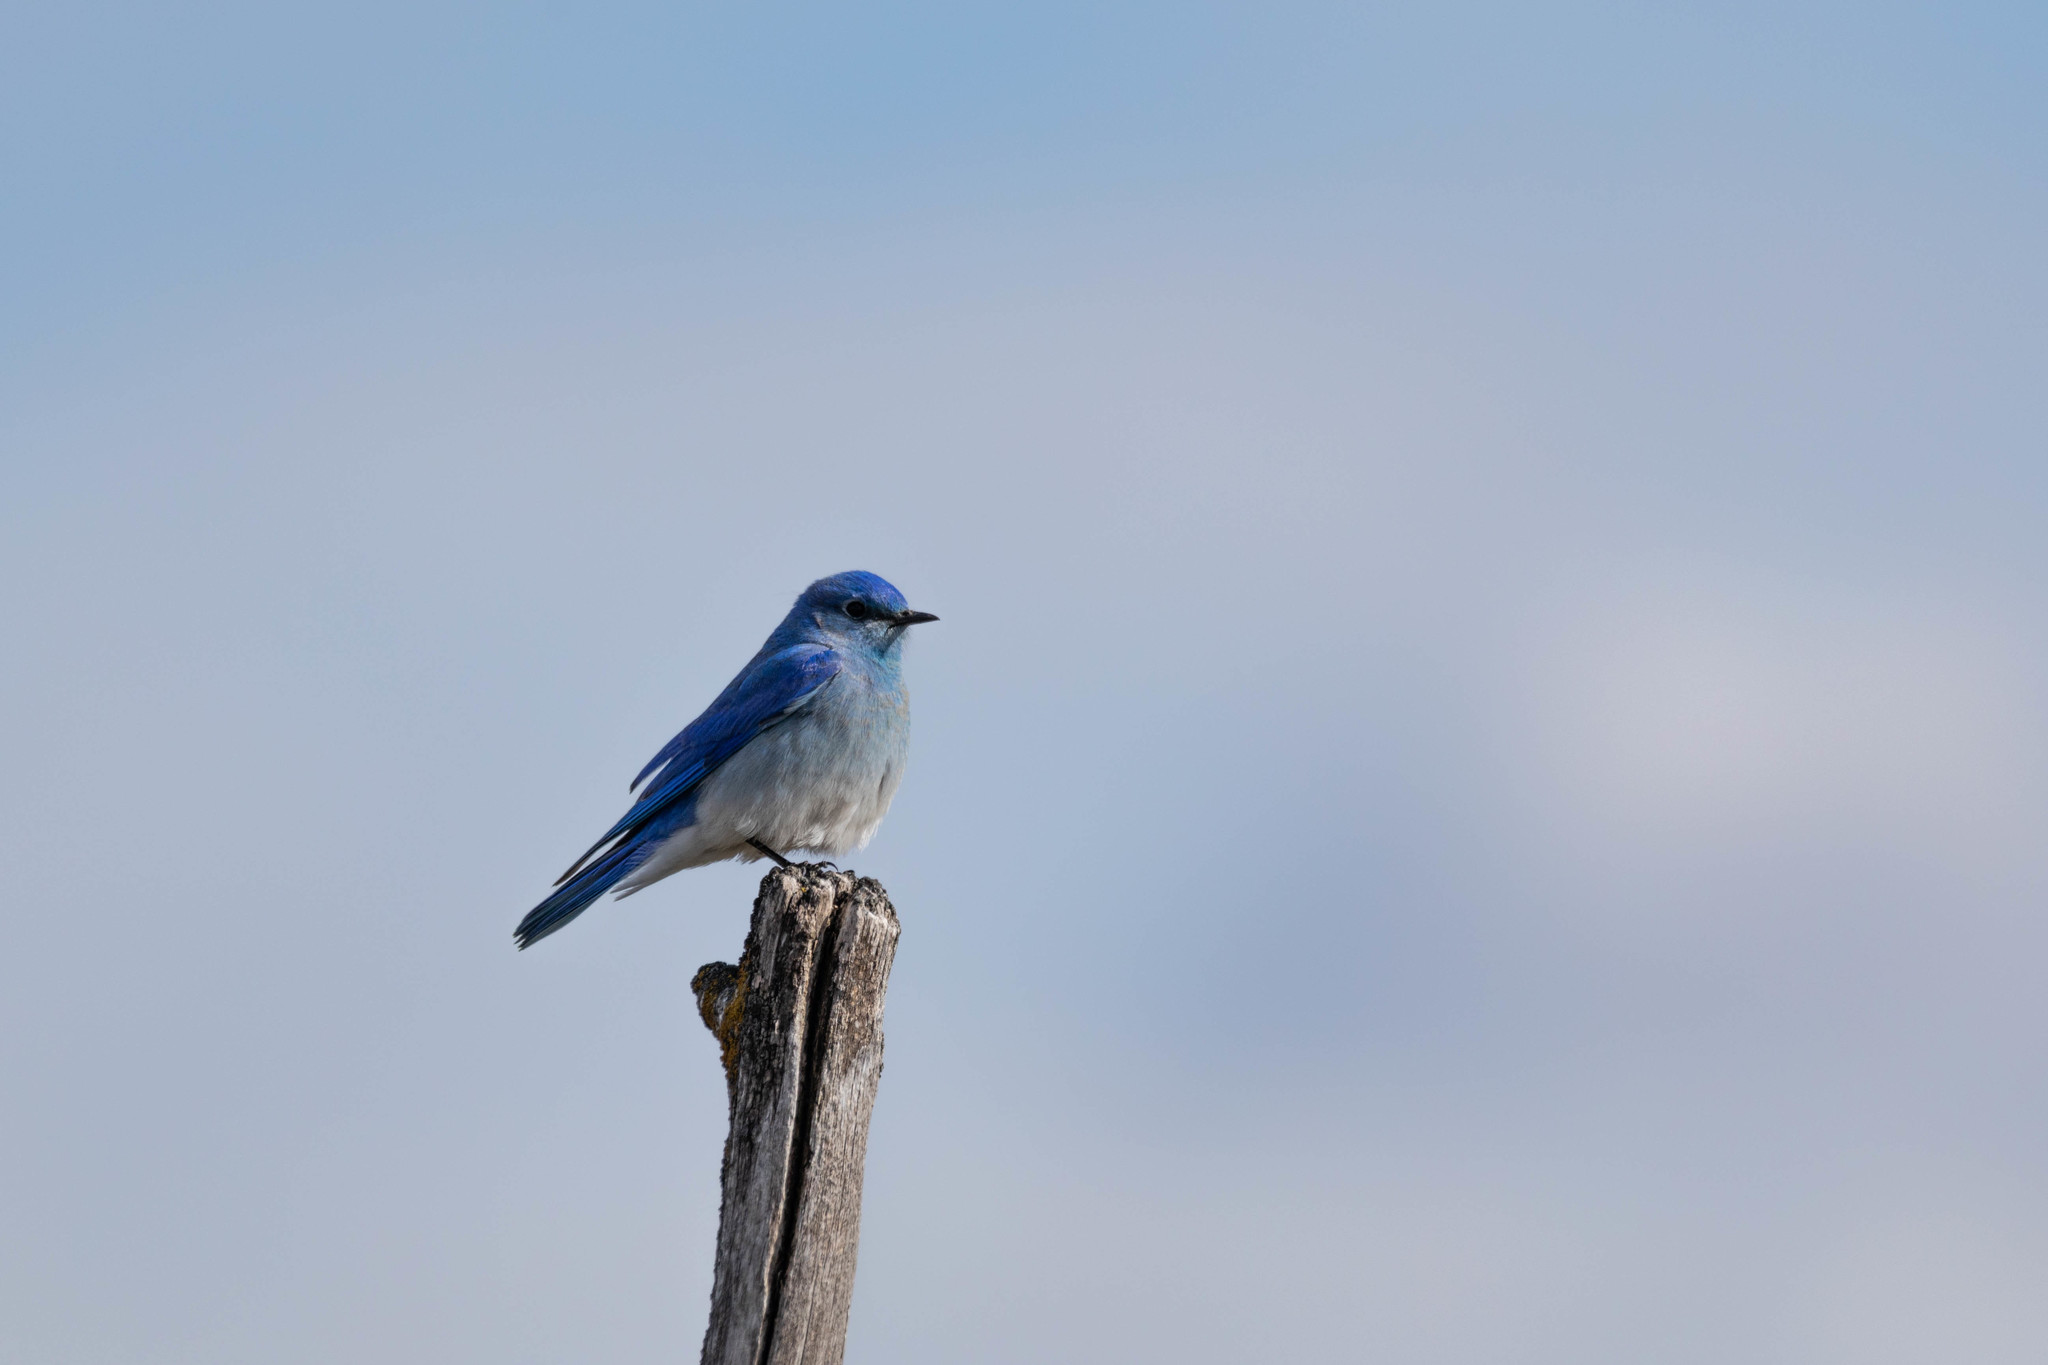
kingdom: Animalia
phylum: Chordata
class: Aves
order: Passeriformes
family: Turdidae
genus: Sialia
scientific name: Sialia currucoides
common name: Mountain bluebird
